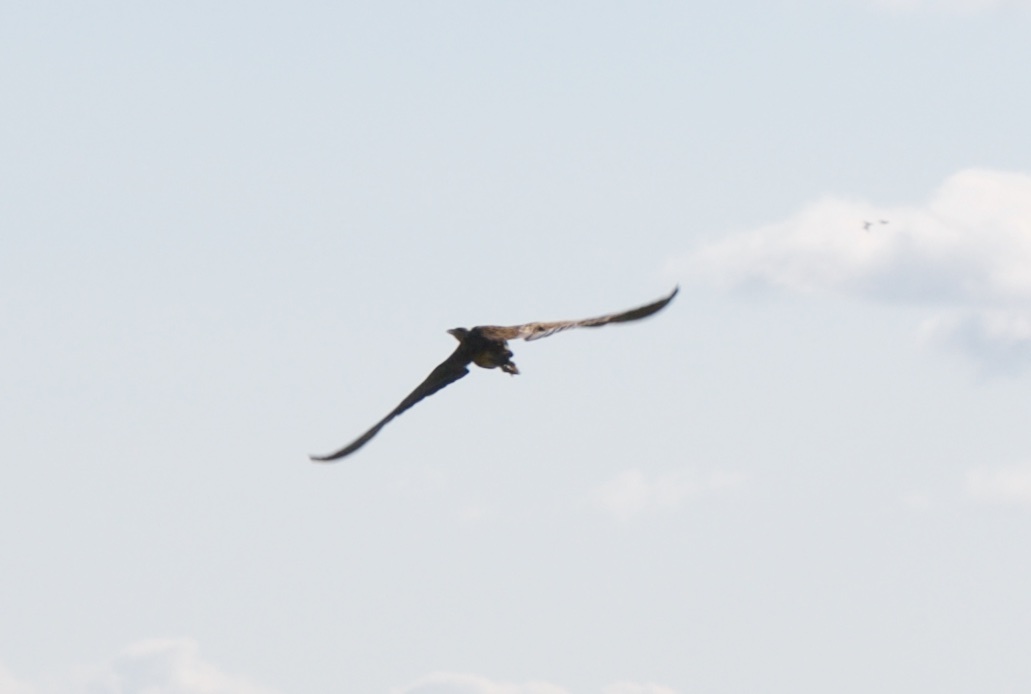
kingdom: Animalia
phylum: Chordata
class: Aves
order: Pelecaniformes
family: Ardeidae
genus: Botaurus
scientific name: Botaurus lentiginosus
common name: American bittern
